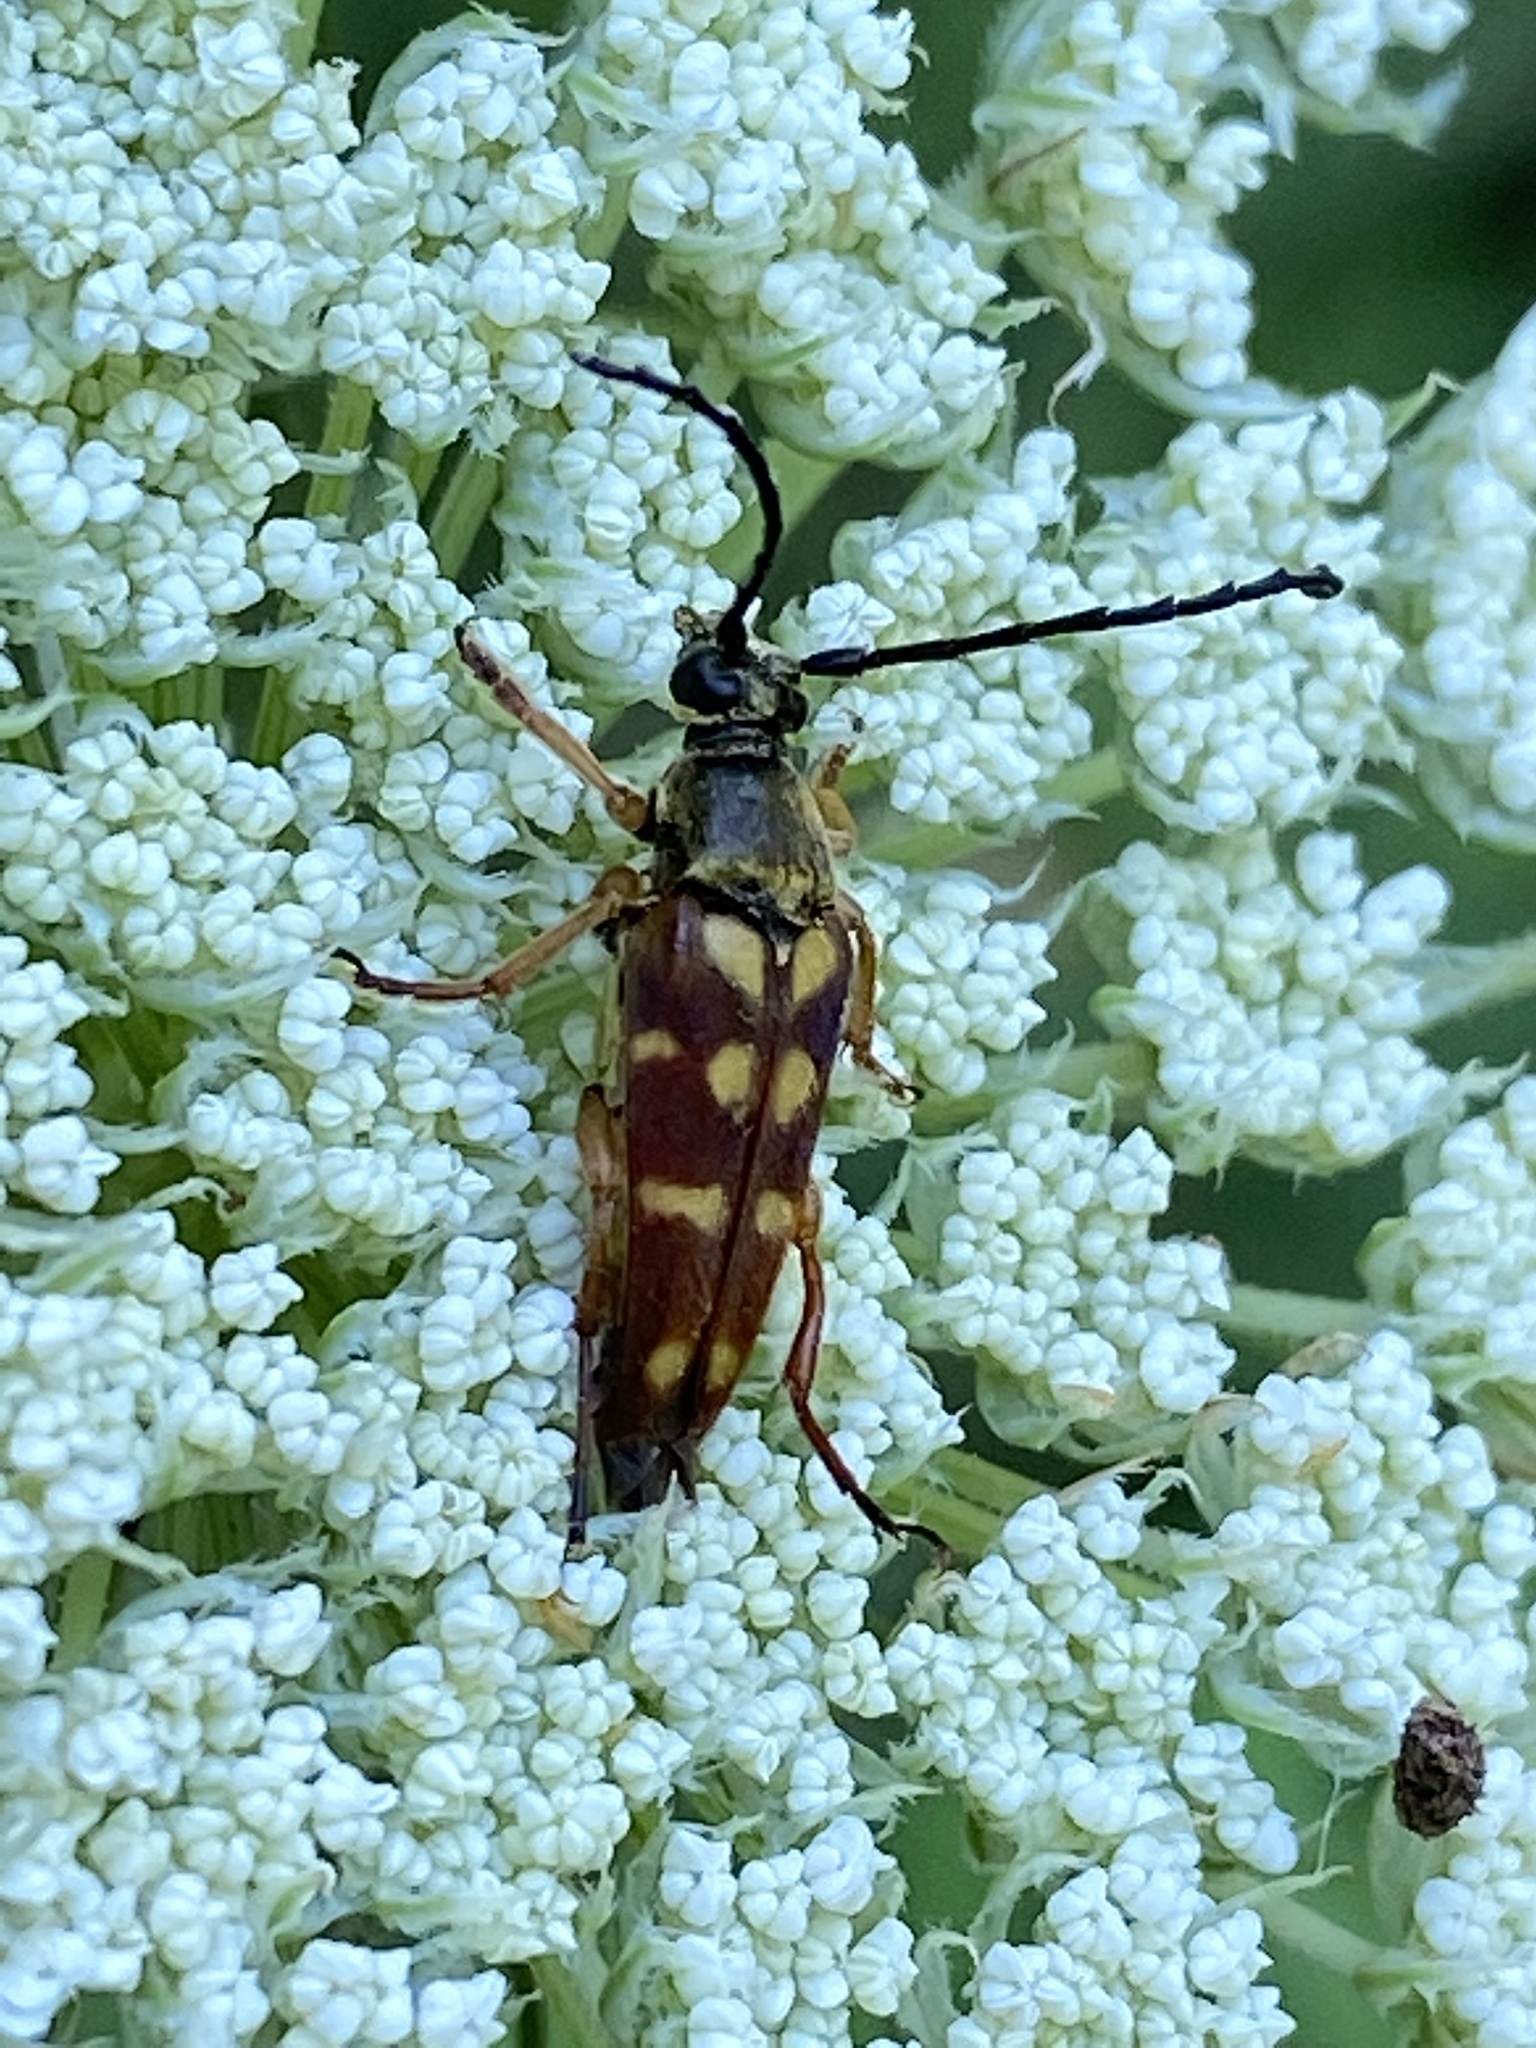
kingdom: Animalia
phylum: Arthropoda
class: Insecta
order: Coleoptera
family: Cerambycidae
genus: Typocerus
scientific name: Typocerus velutinus
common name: Banded longhorn beetle
